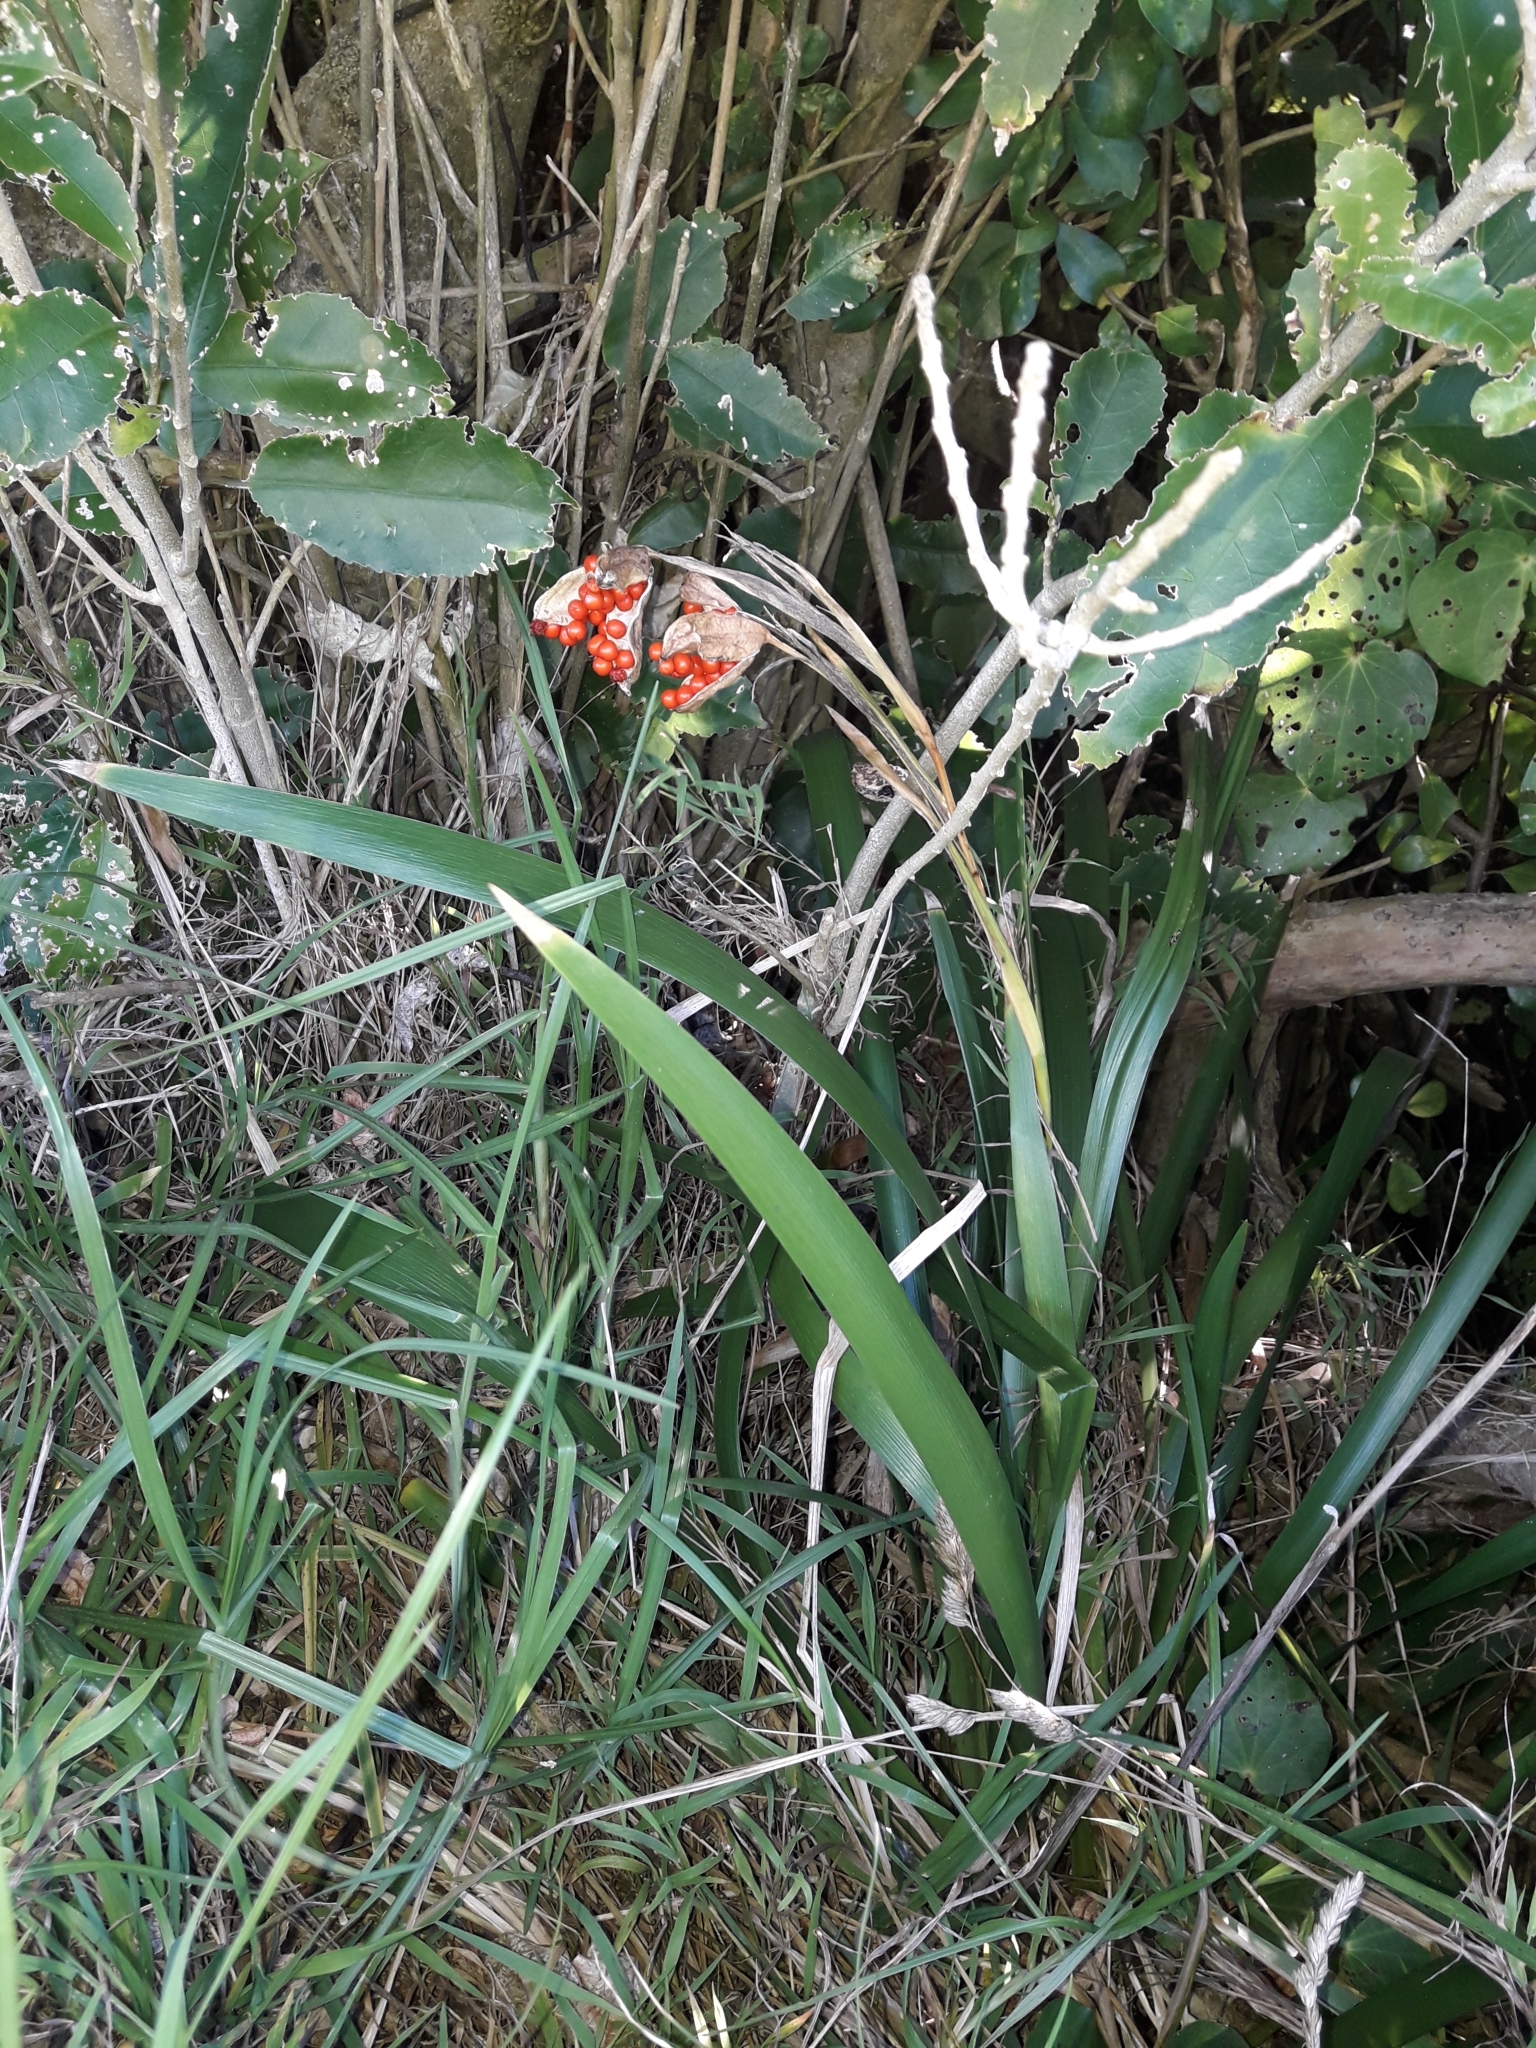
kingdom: Plantae
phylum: Tracheophyta
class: Liliopsida
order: Asparagales
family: Iridaceae
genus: Iris
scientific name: Iris foetidissima
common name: Stinking iris
